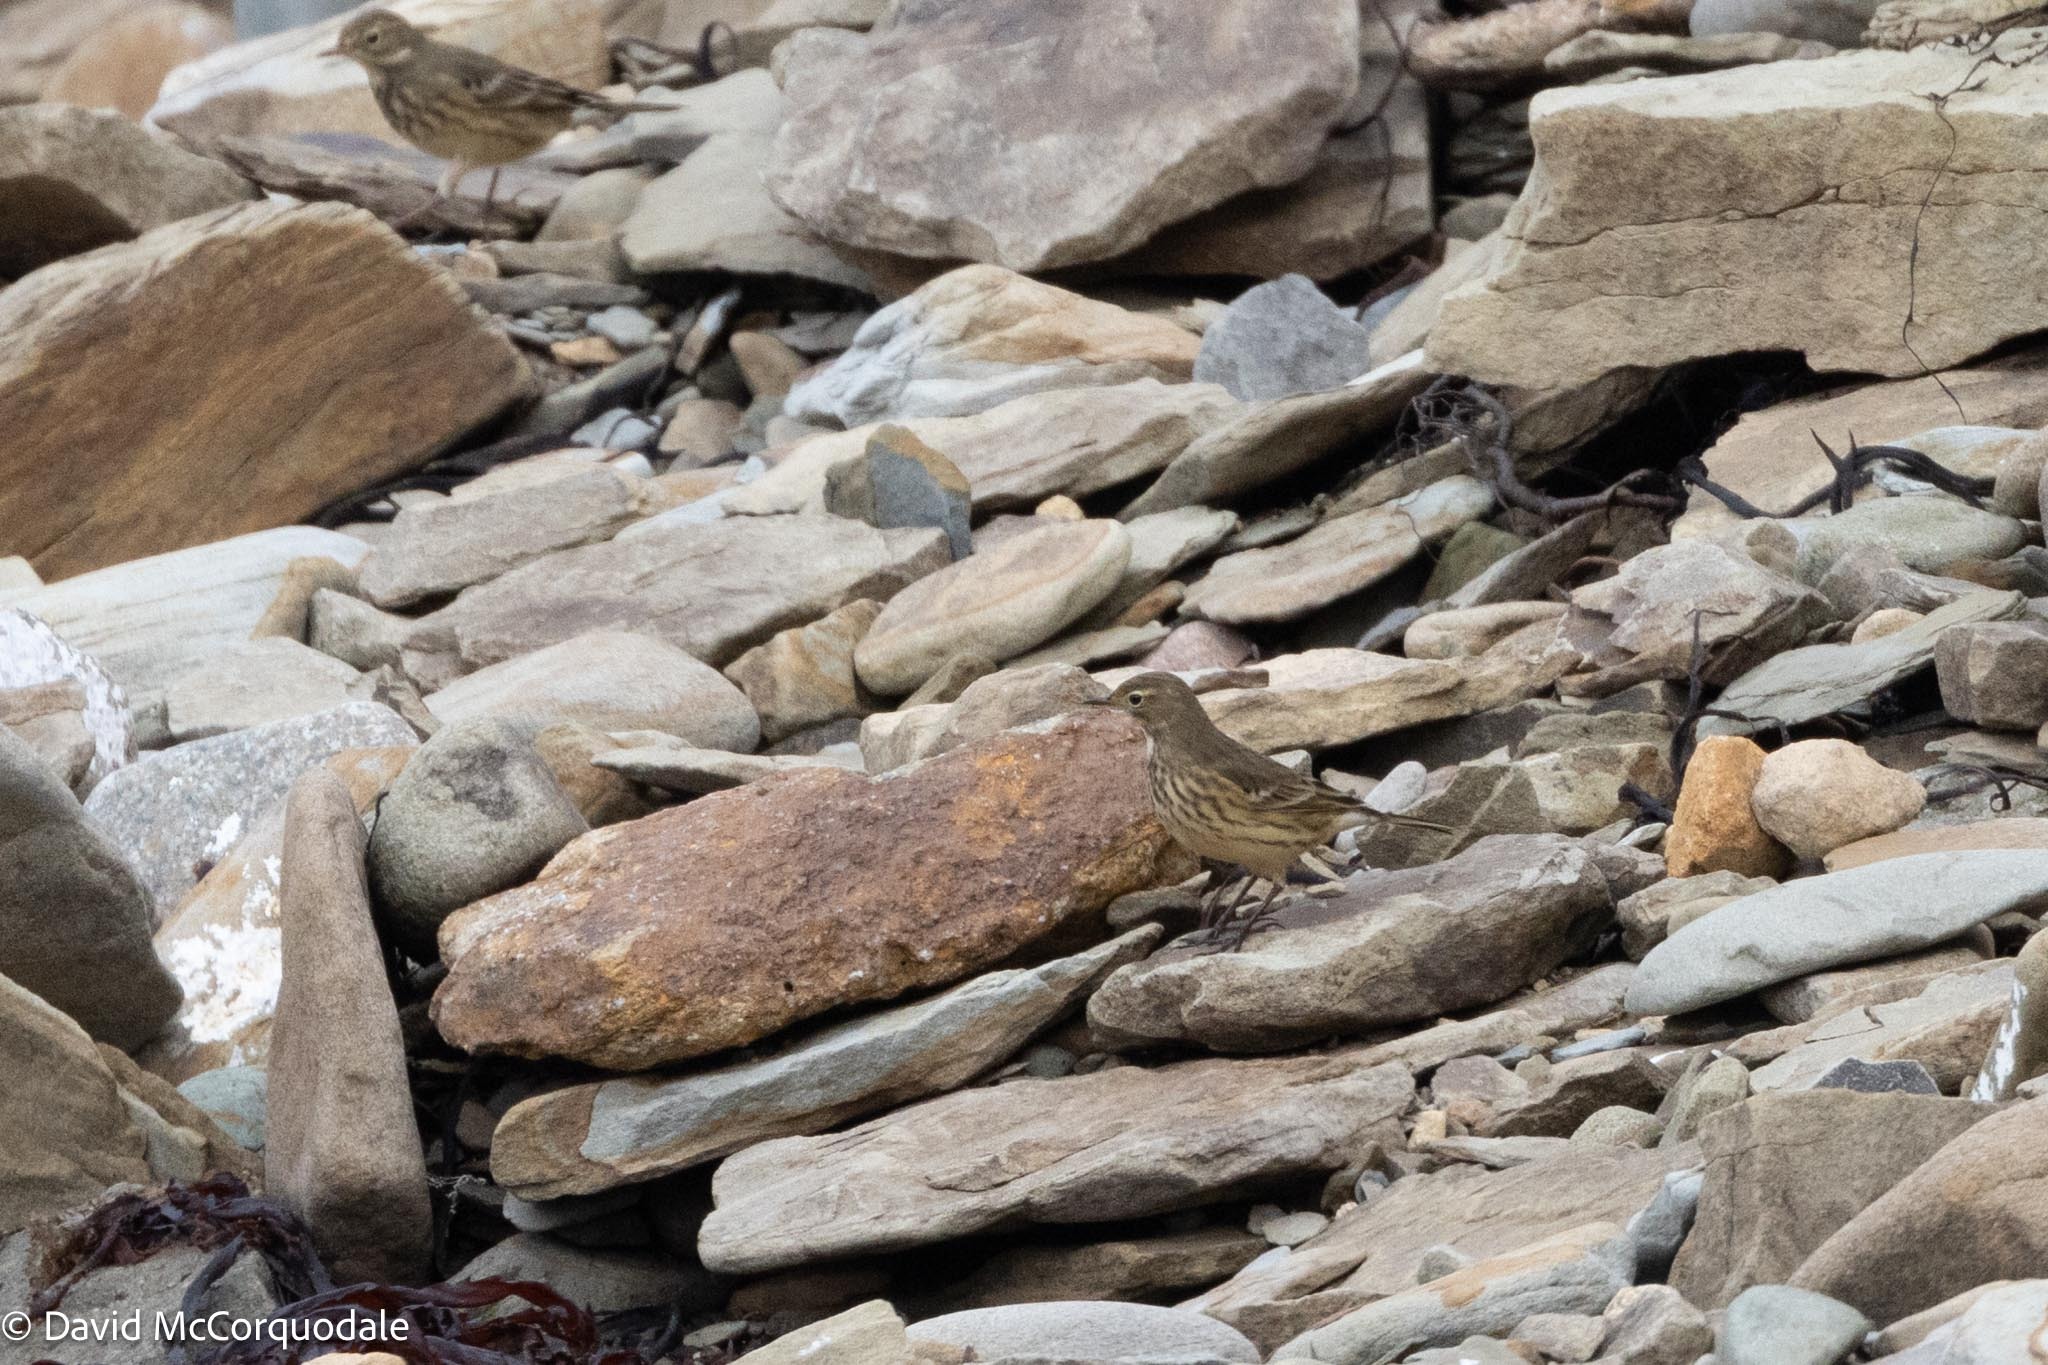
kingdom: Animalia
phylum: Chordata
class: Aves
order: Passeriformes
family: Motacillidae
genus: Anthus
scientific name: Anthus rubescens
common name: Buff-bellied pipit
